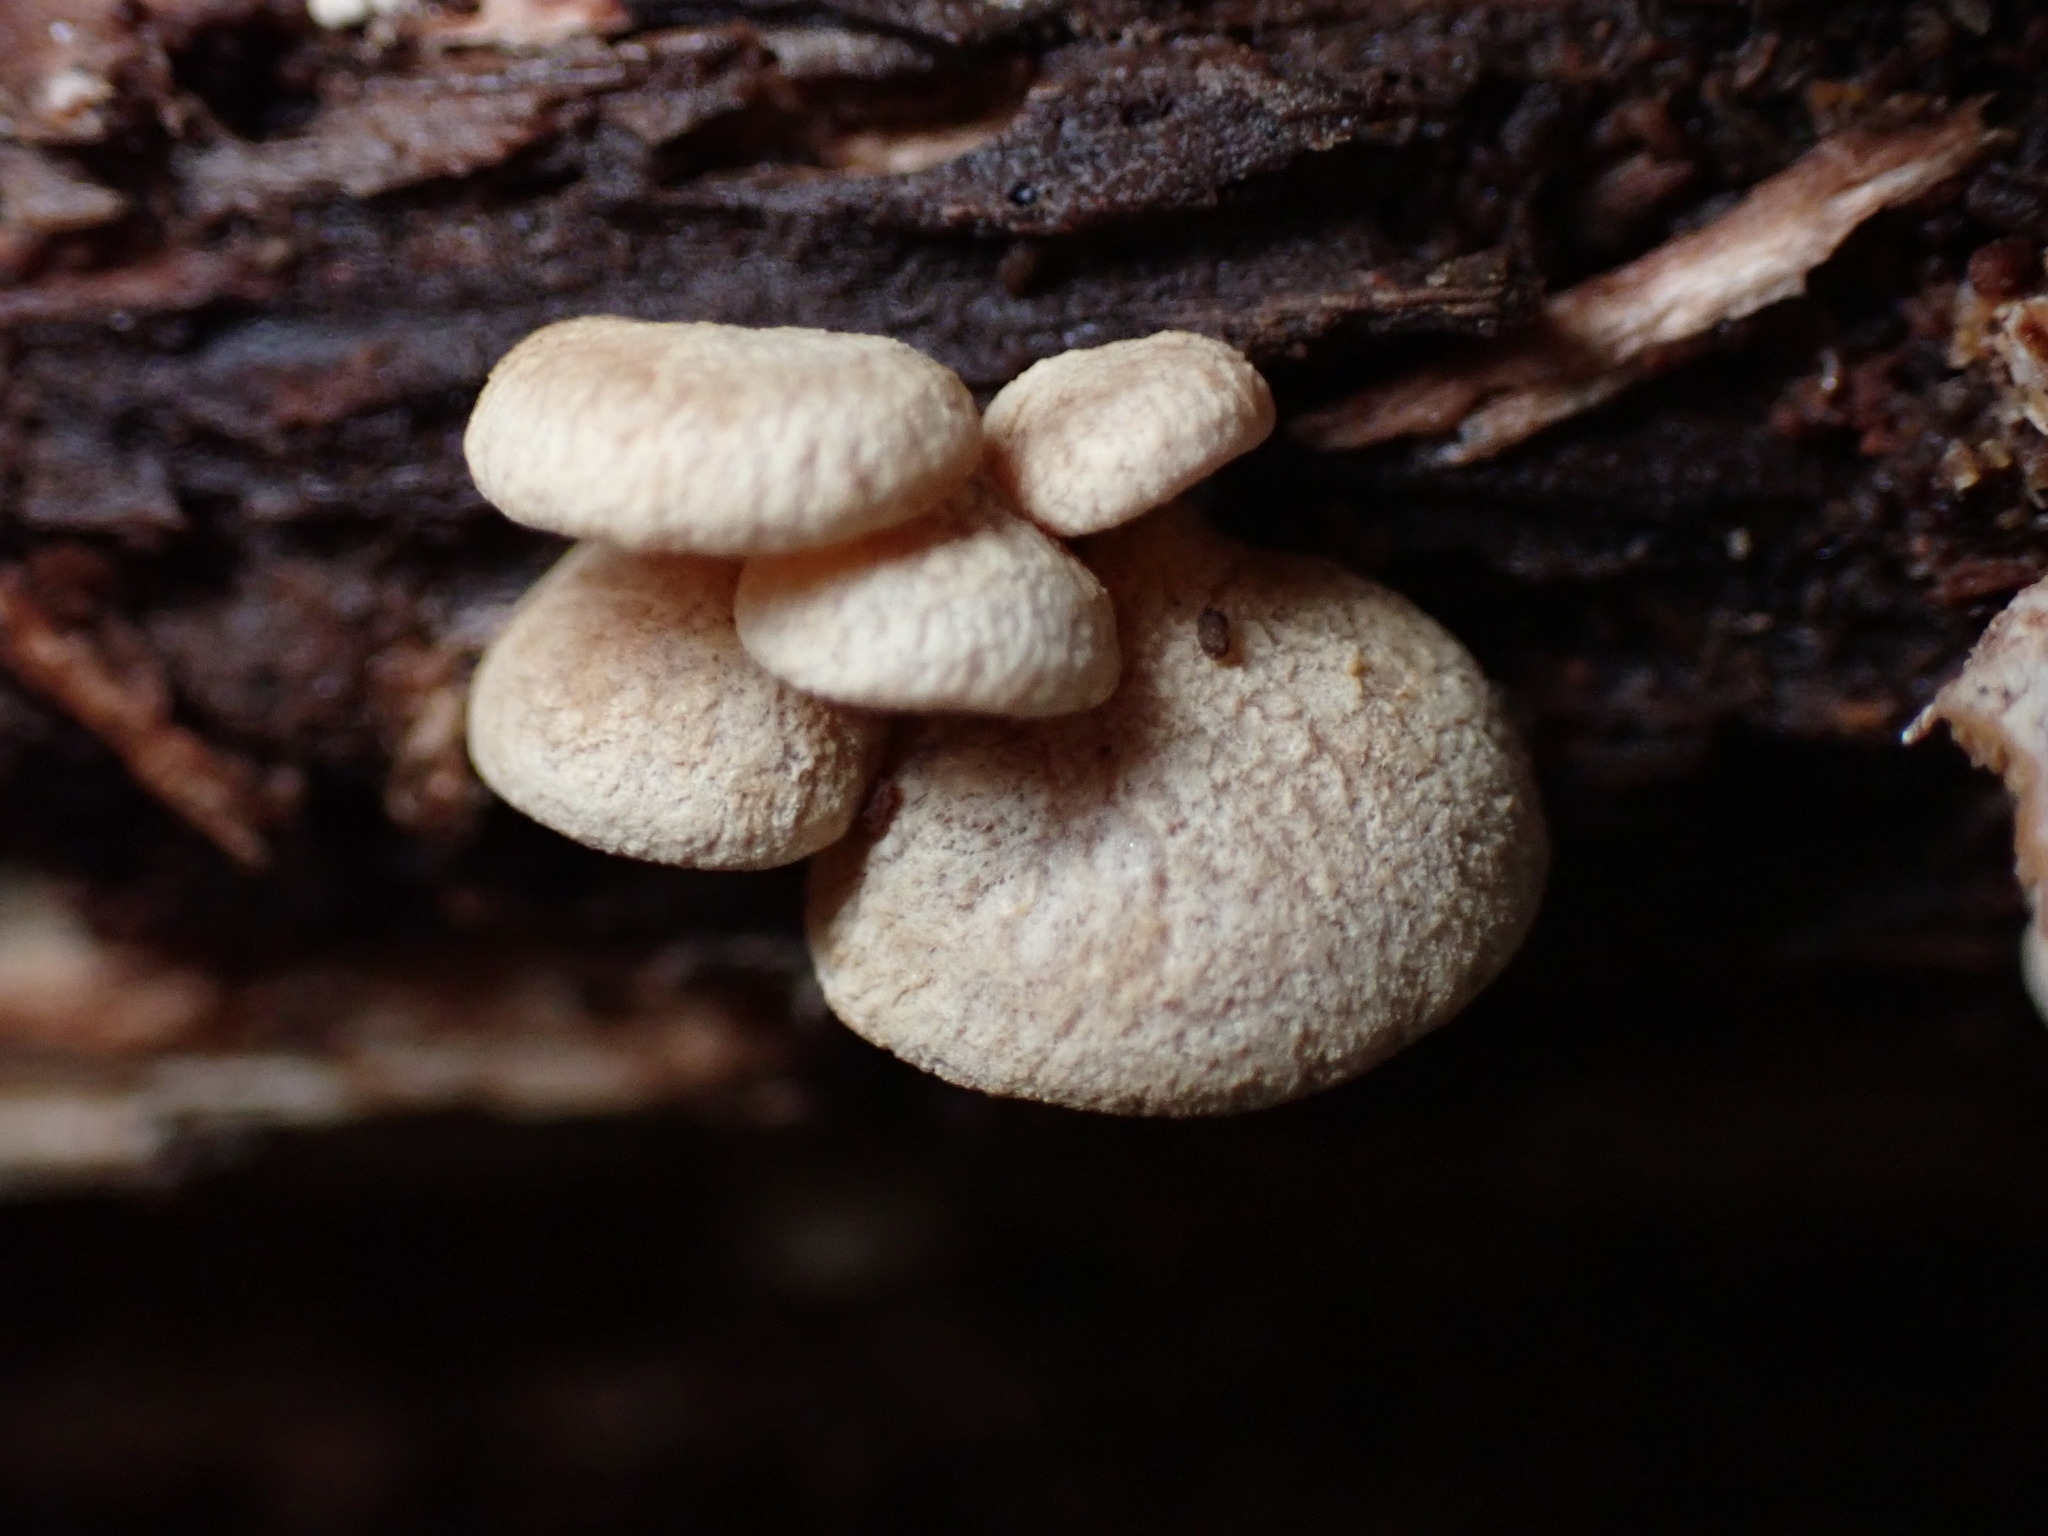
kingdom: Fungi
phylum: Basidiomycota
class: Agaricomycetes
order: Agaricales
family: Mycenaceae
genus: Panellus
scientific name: Panellus stipticus
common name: Bitter oysterling
